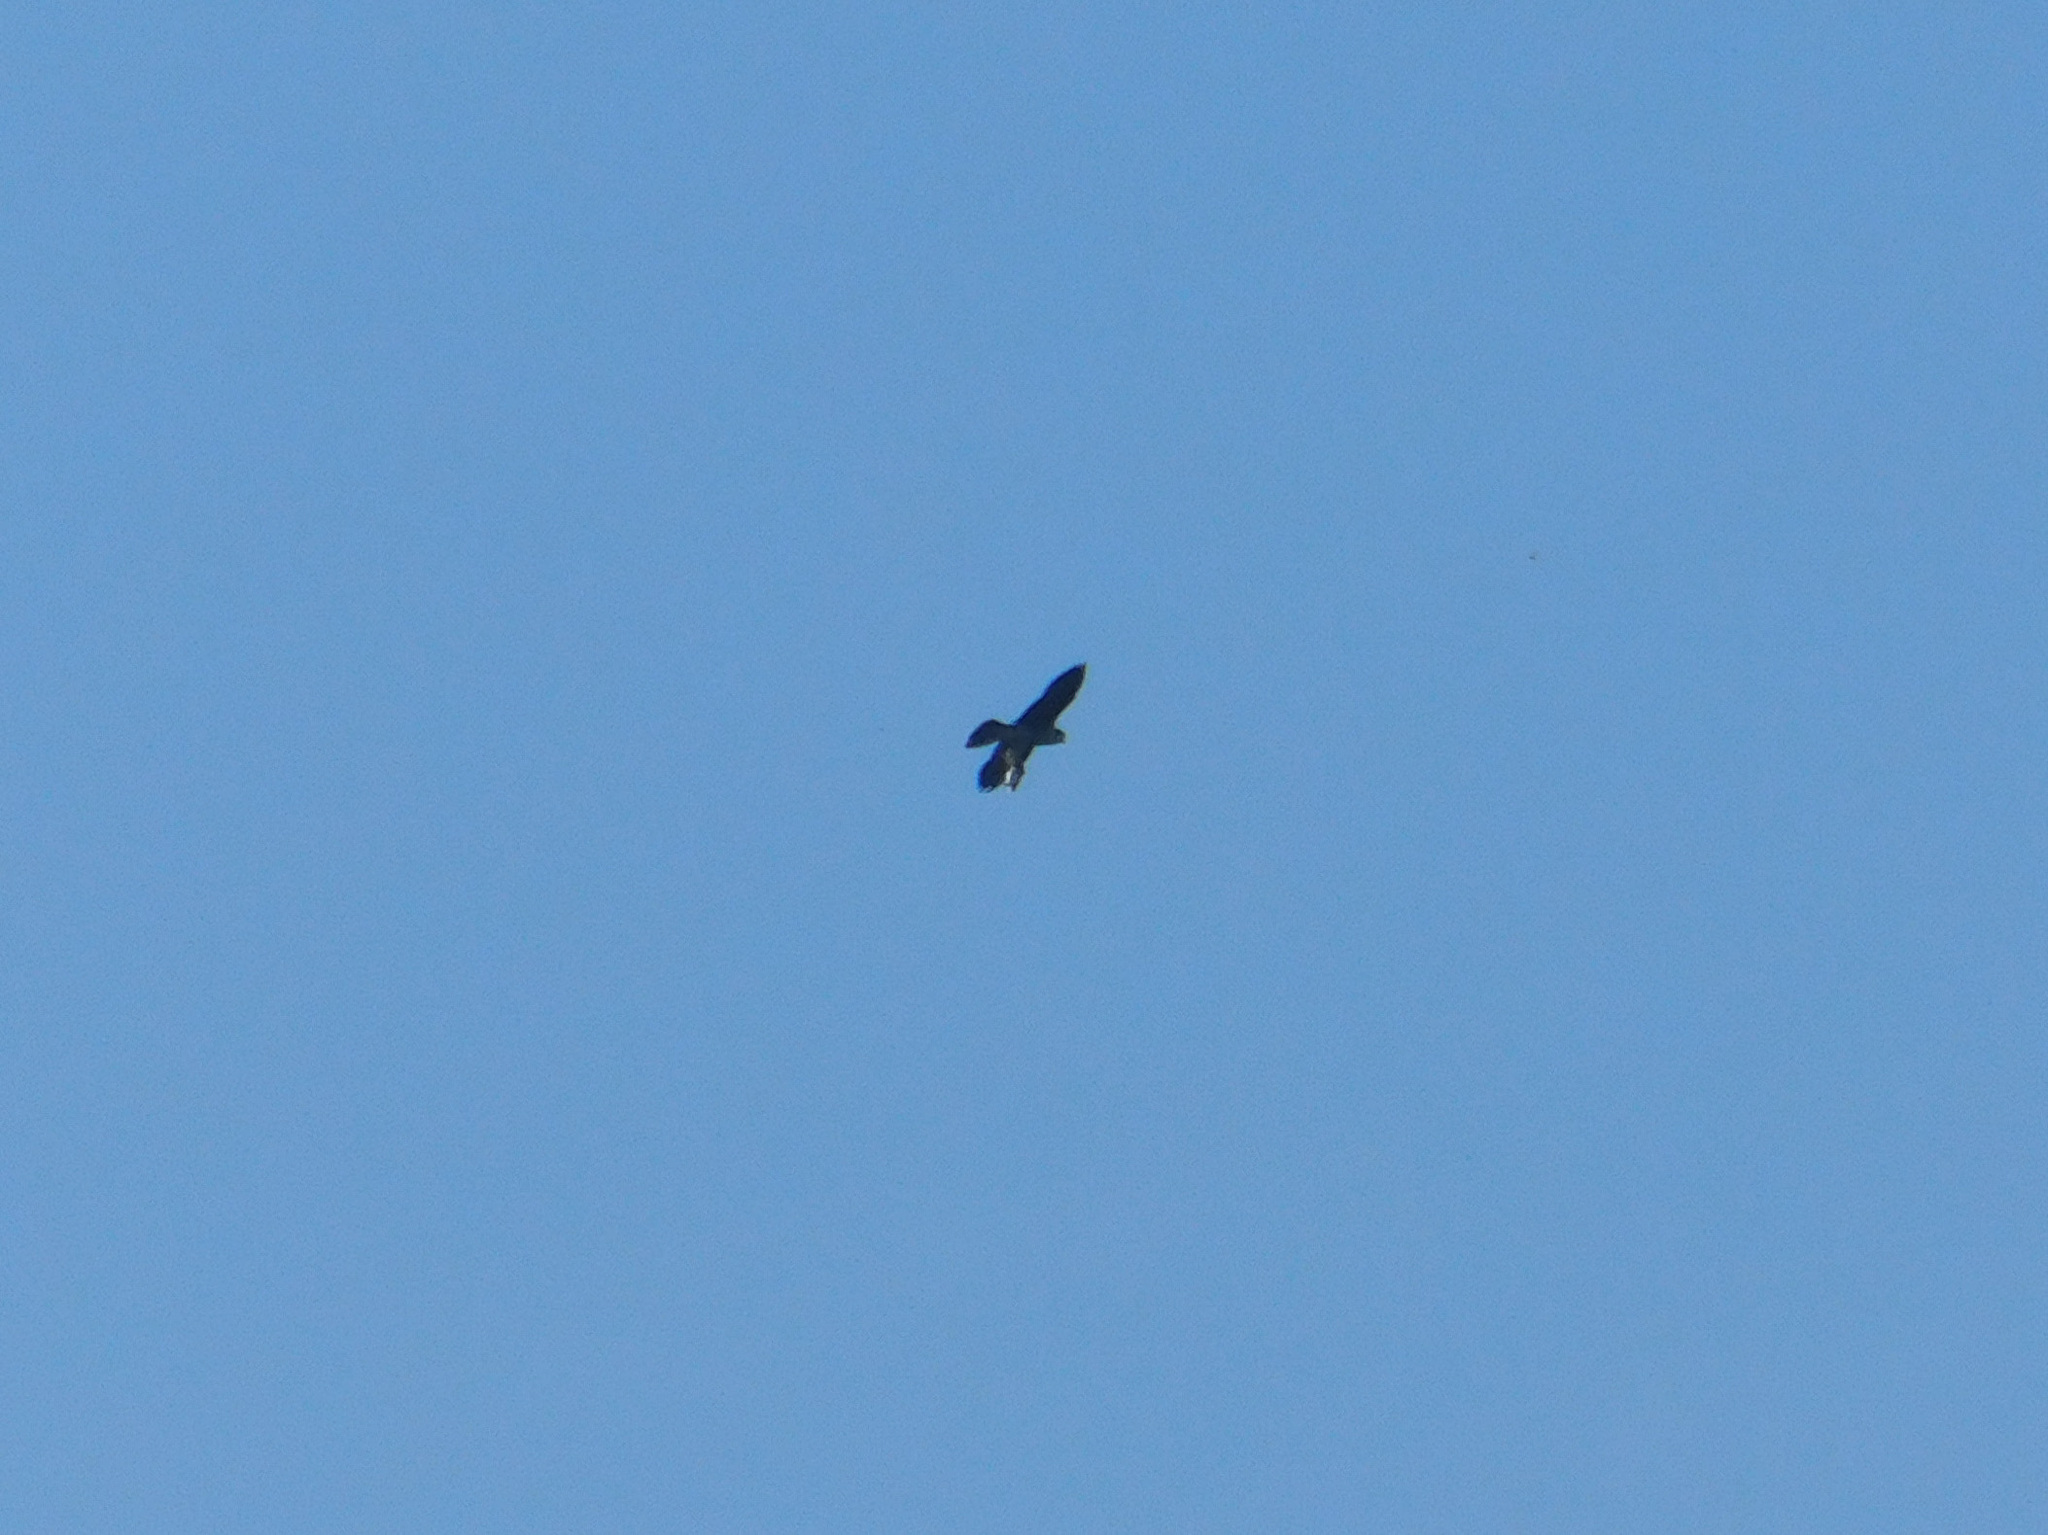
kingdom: Animalia
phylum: Chordata
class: Aves
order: Falconiformes
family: Falconidae
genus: Falco
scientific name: Falco peregrinus
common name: Peregrine falcon
